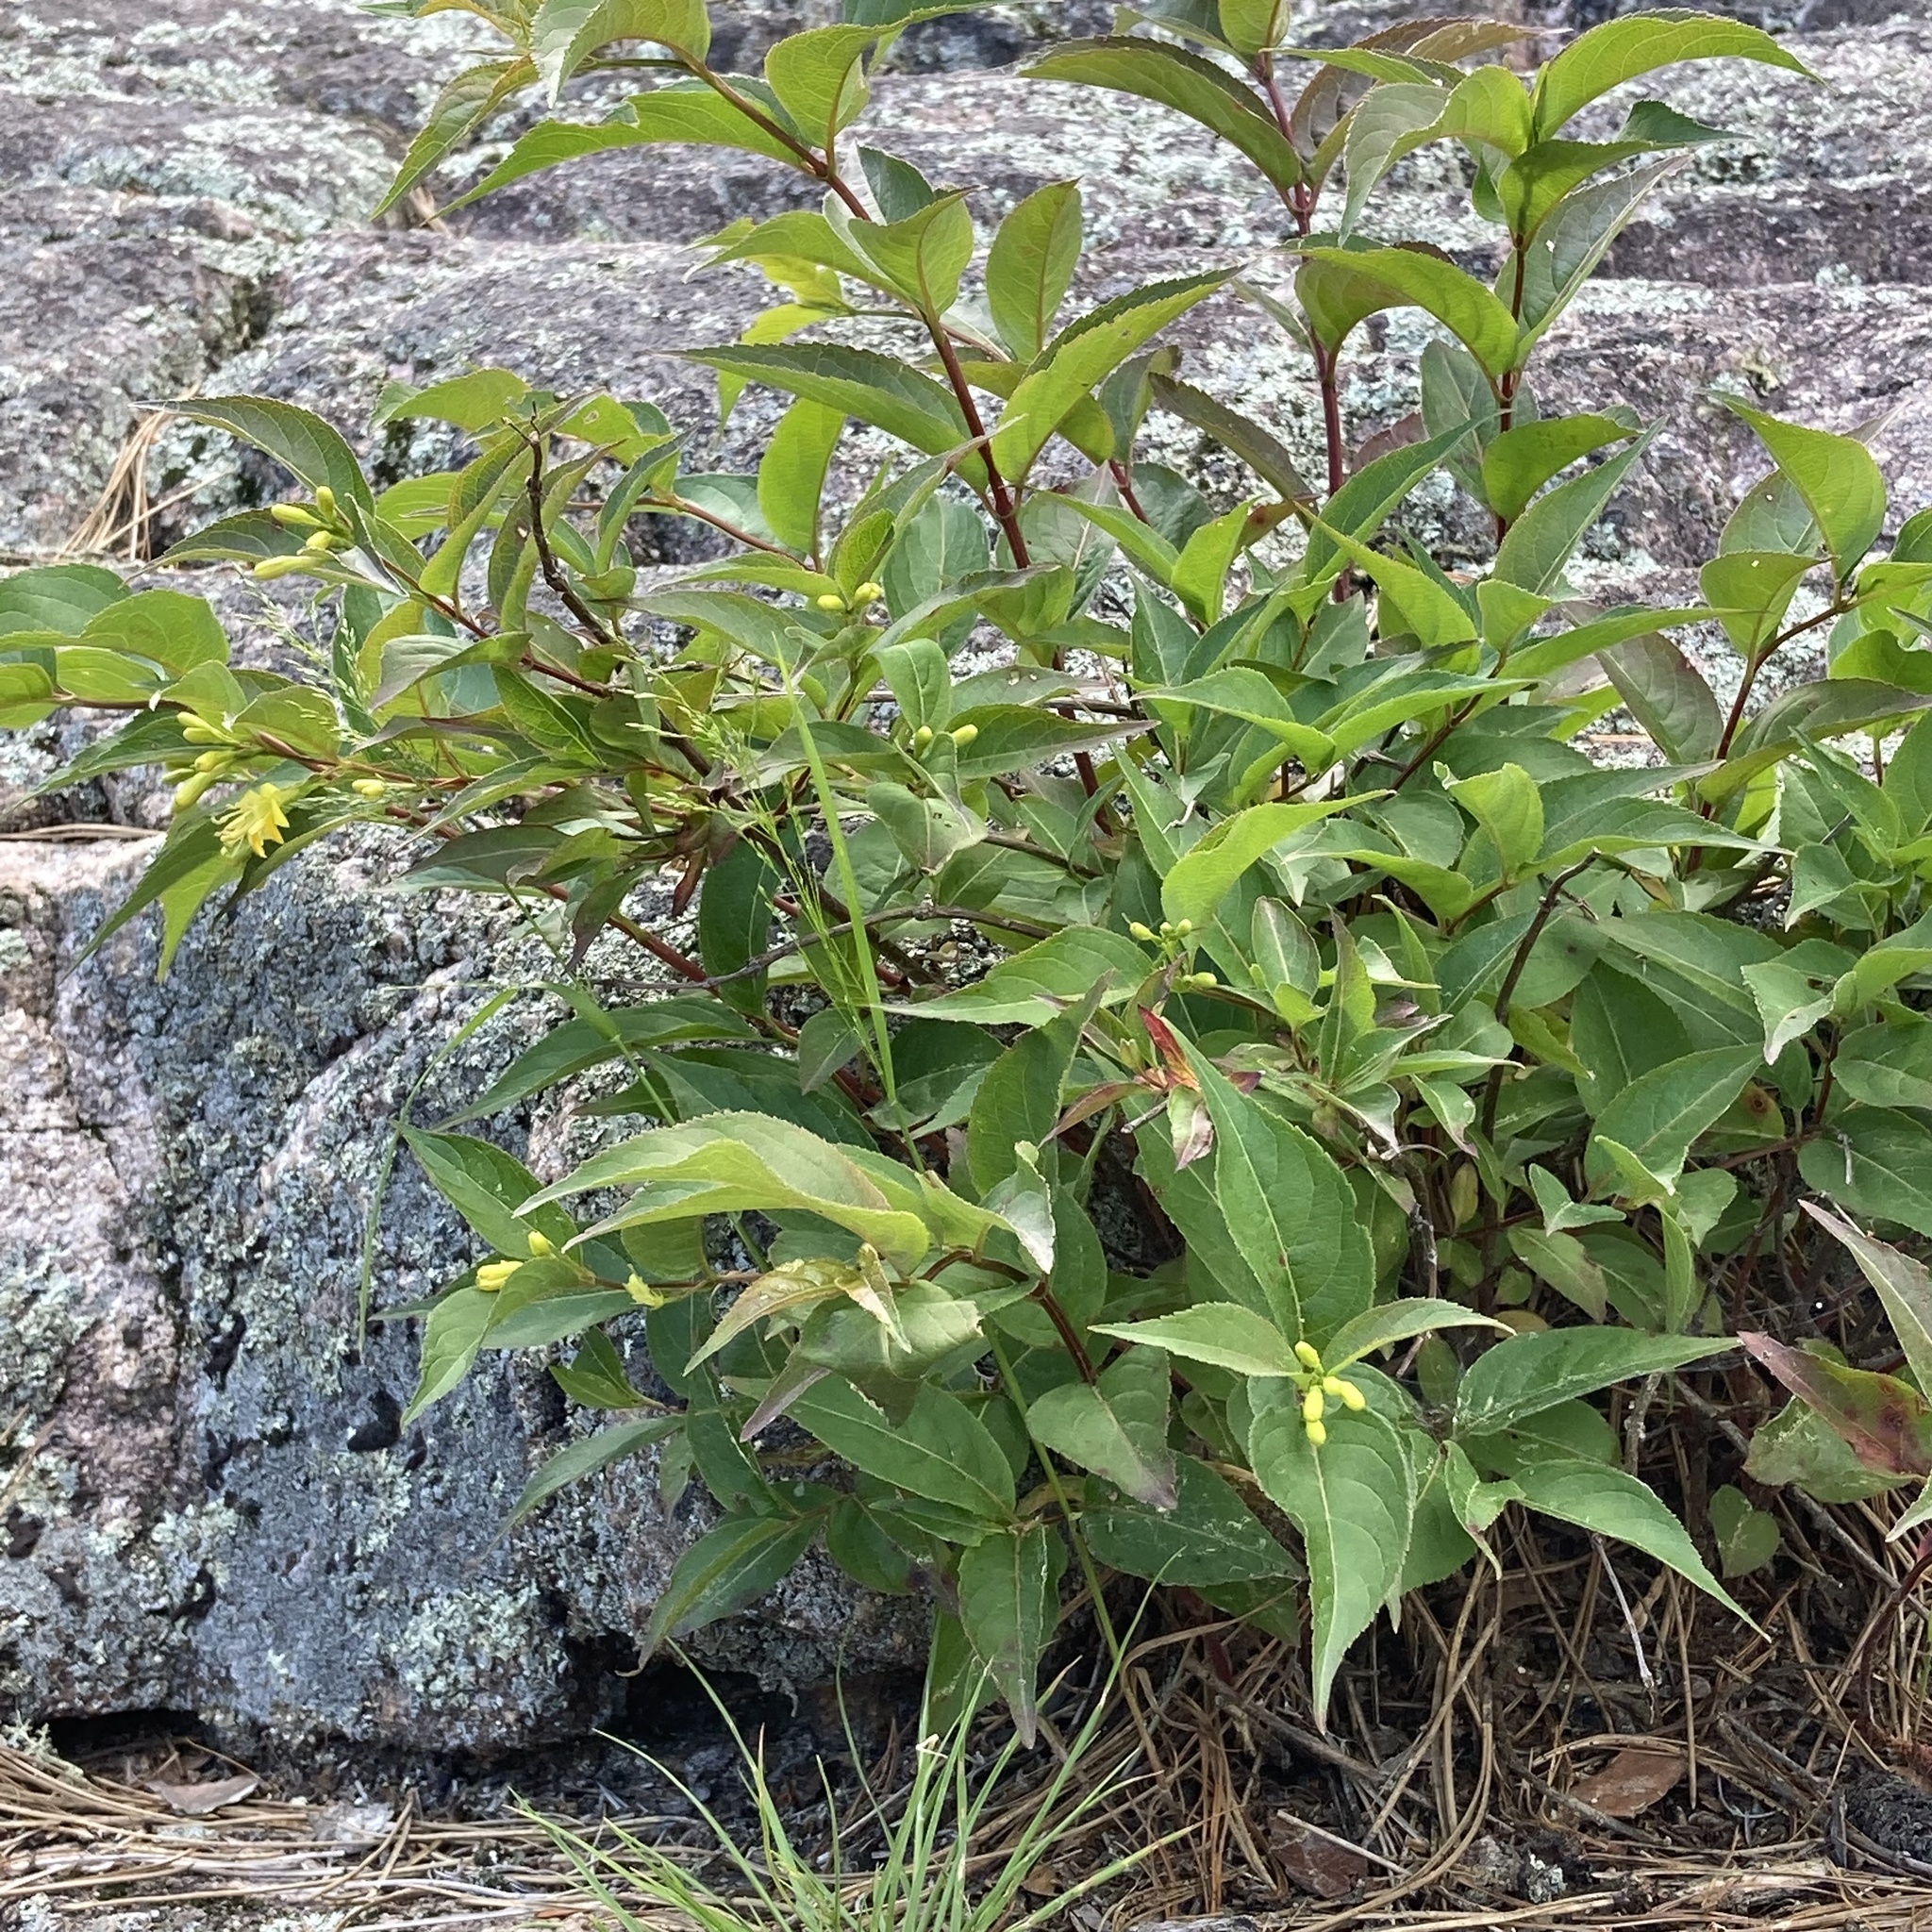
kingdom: Plantae
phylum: Tracheophyta
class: Magnoliopsida
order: Dipsacales
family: Caprifoliaceae
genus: Diervilla
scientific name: Diervilla lonicera
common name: Bush-honeysuckle
